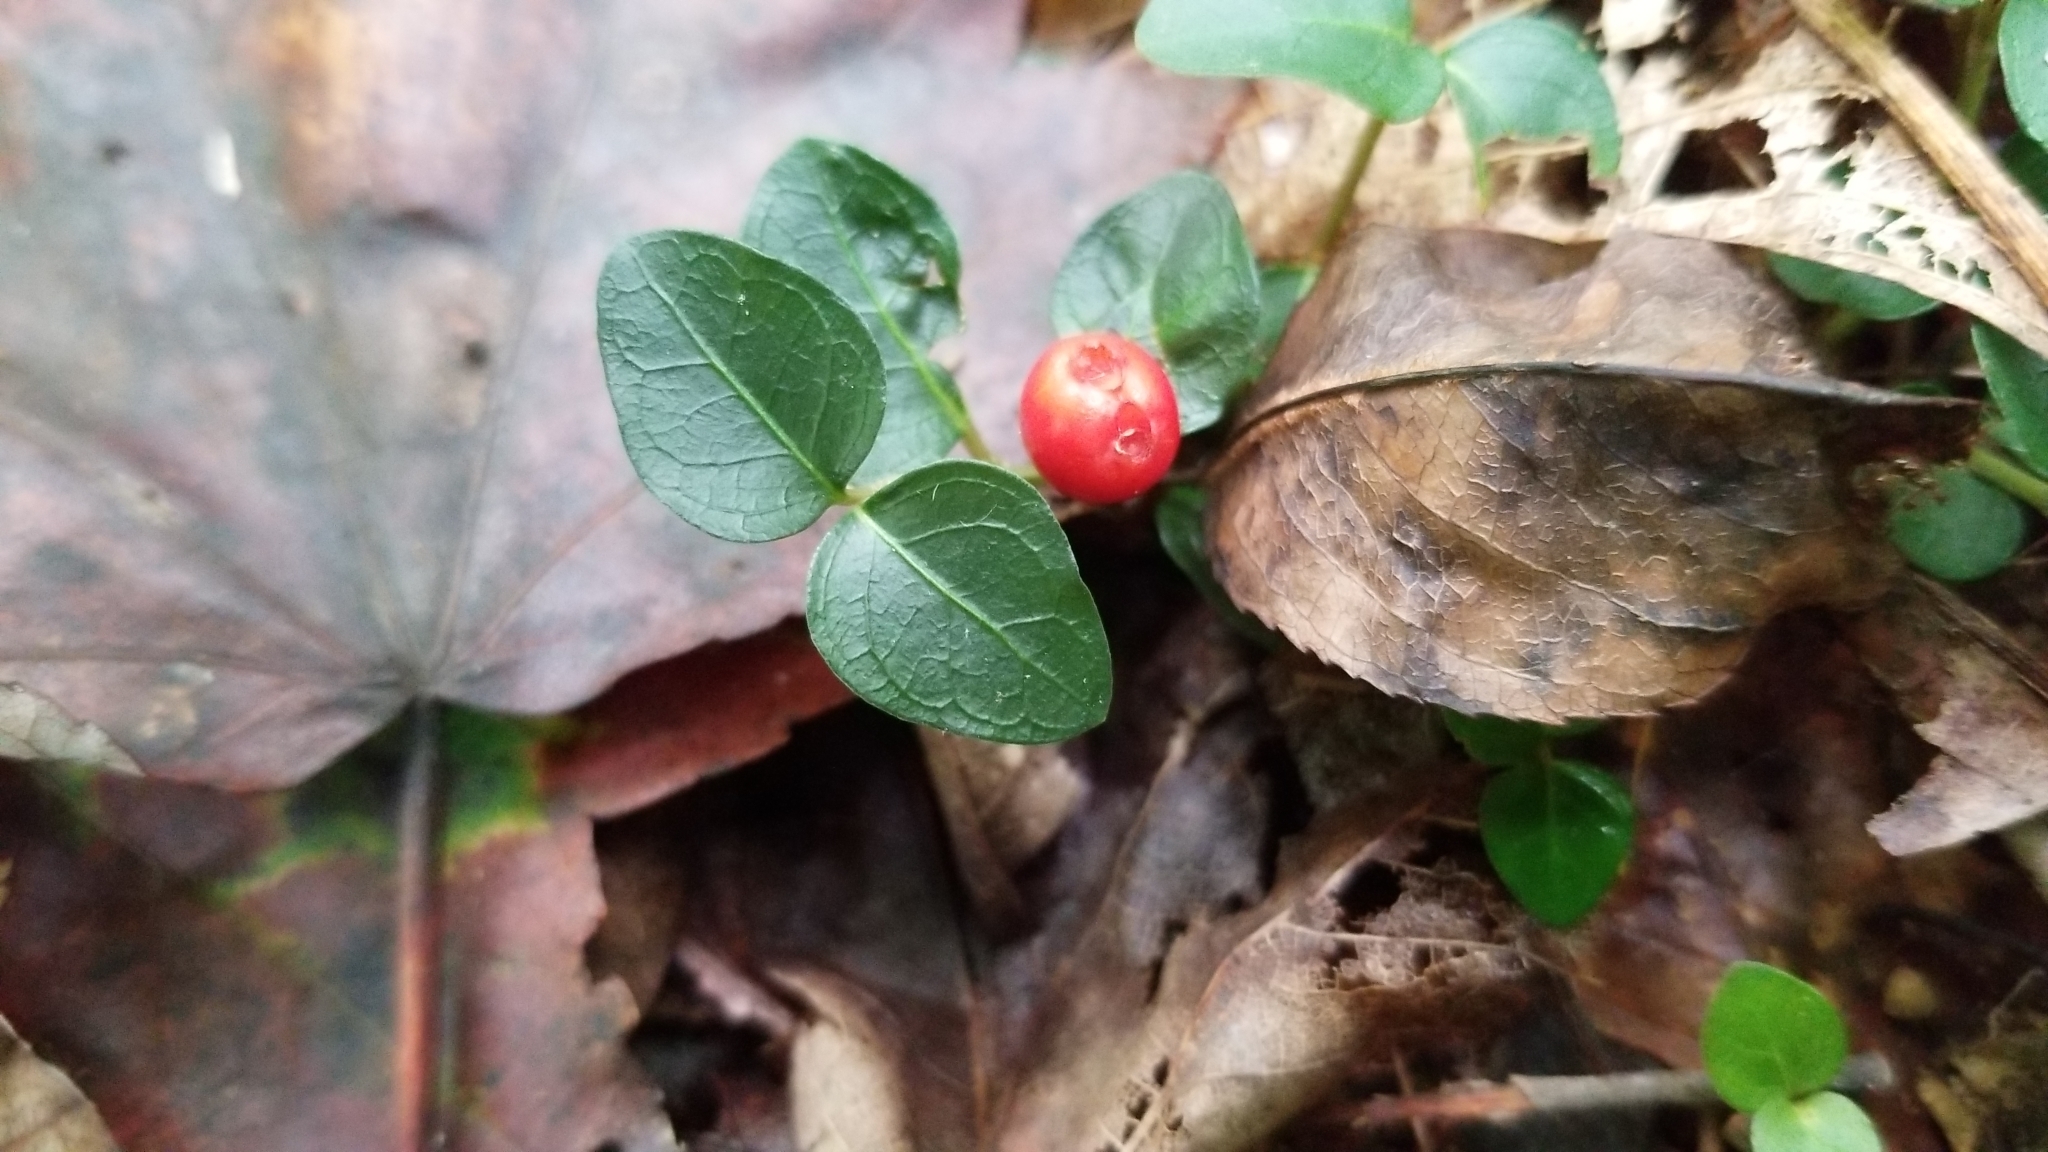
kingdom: Plantae
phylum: Tracheophyta
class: Magnoliopsida
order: Gentianales
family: Rubiaceae
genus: Mitchella
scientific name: Mitchella repens
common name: Partridge-berry
